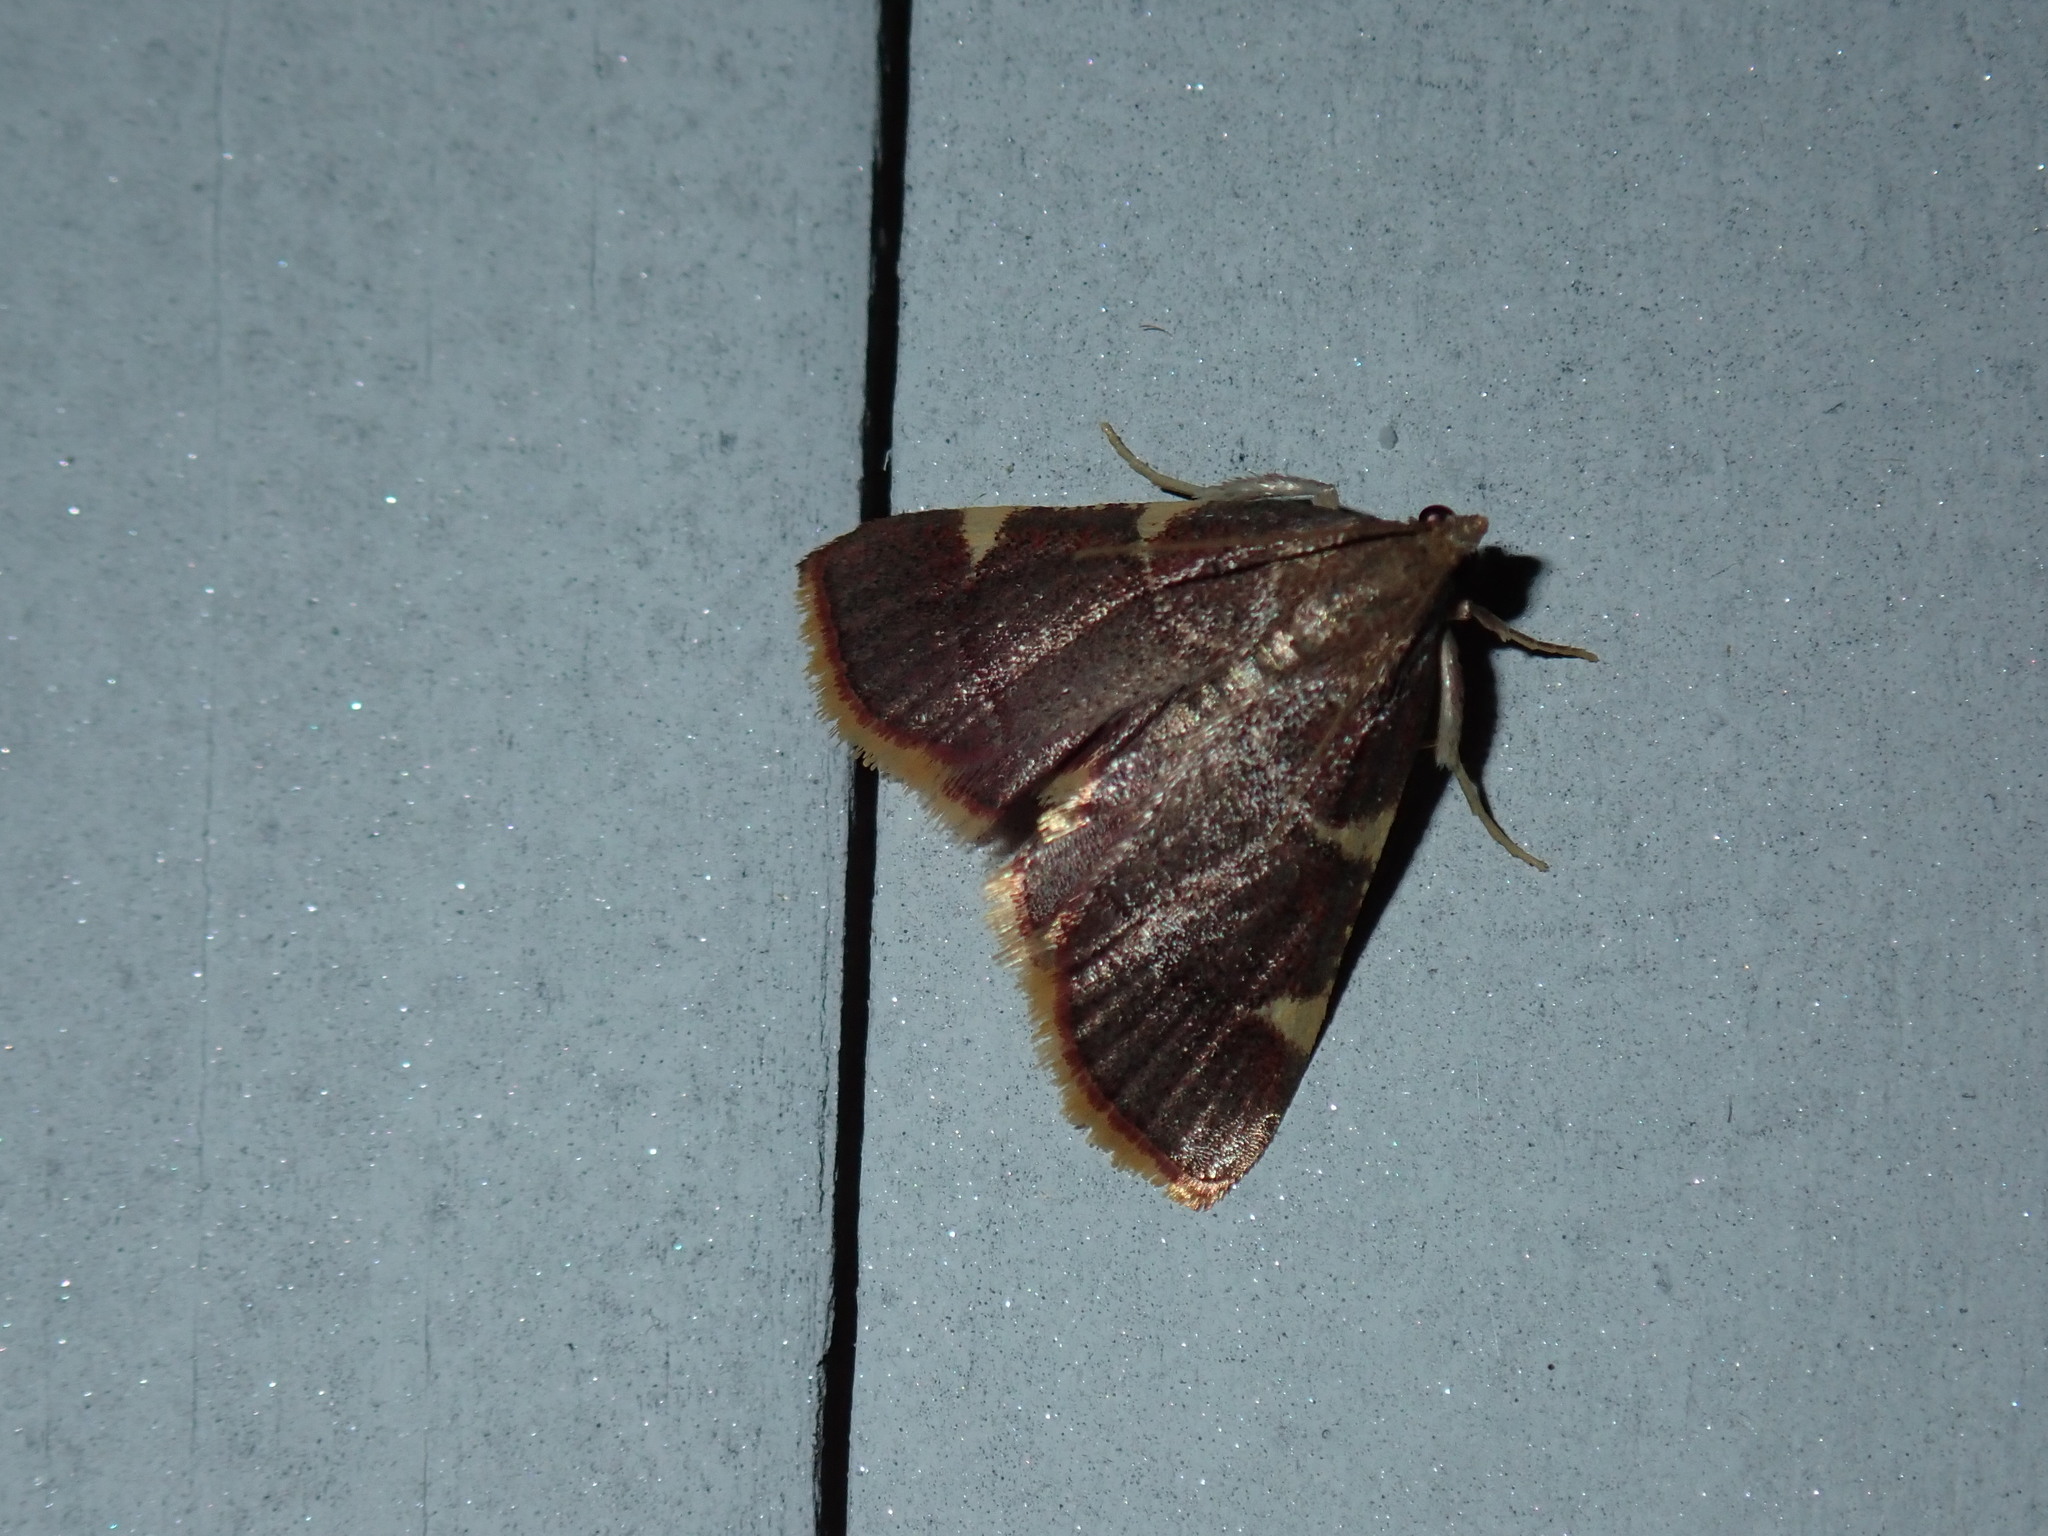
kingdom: Animalia
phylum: Arthropoda
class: Insecta
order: Lepidoptera
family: Pyralidae
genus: Hypsopygia
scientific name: Hypsopygia olinalis
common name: Yellow-fringed dolichomia moth
